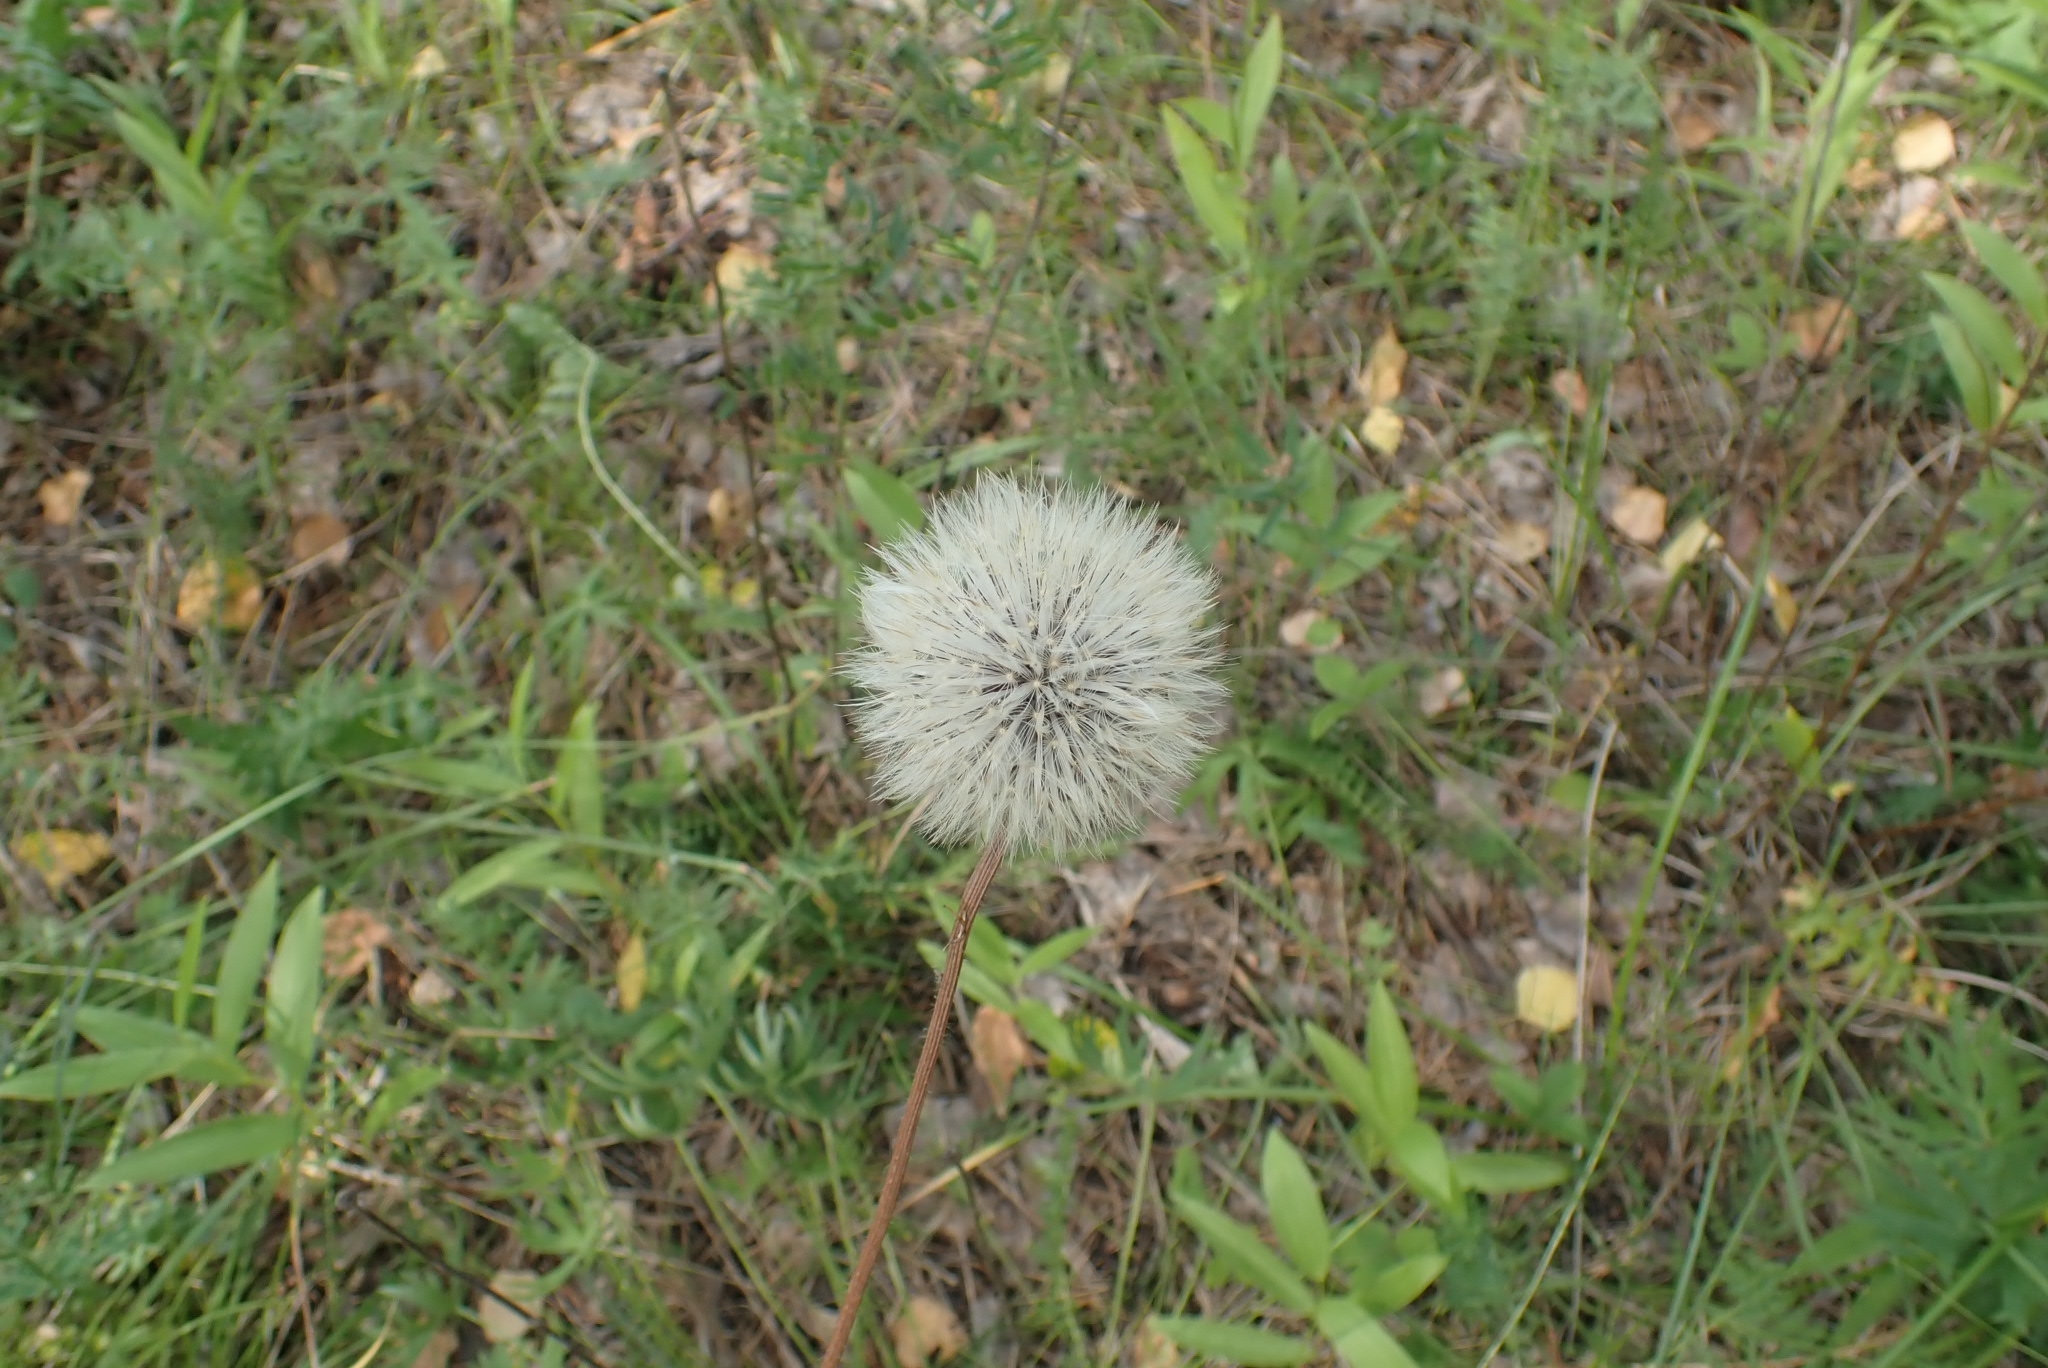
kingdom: Plantae
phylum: Tracheophyta
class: Magnoliopsida
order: Asterales
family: Asteraceae
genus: Trommsdorffia
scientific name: Trommsdorffia maculata
